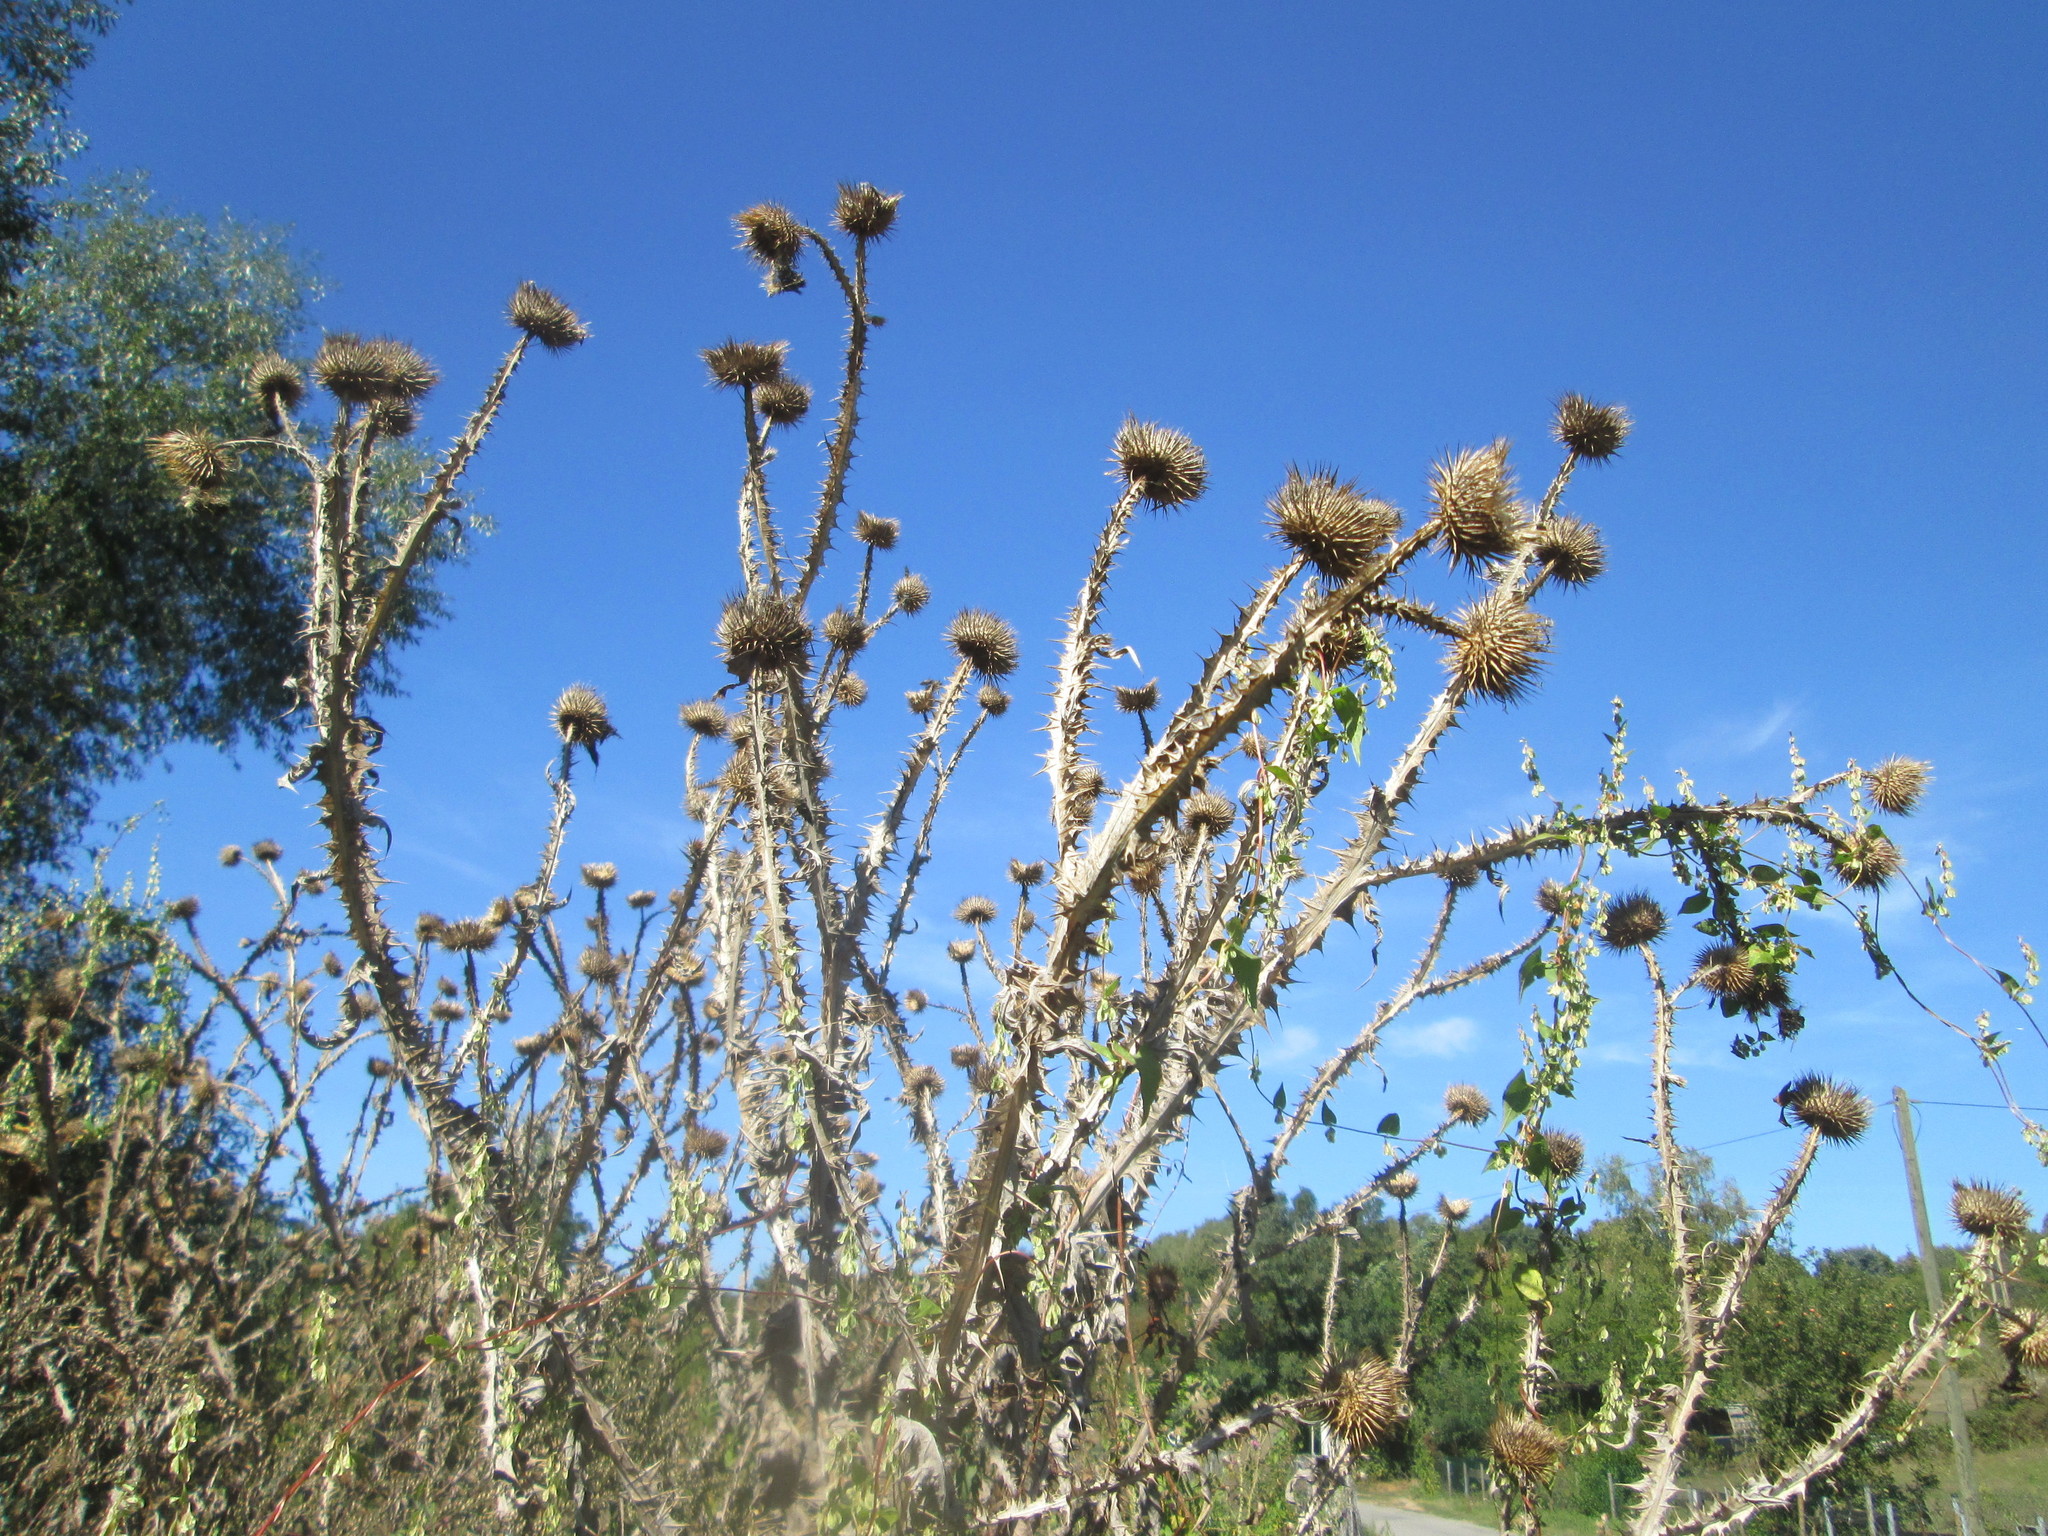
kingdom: Plantae
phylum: Tracheophyta
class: Magnoliopsida
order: Asterales
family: Asteraceae
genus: Onopordum
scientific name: Onopordum acanthium
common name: Scotch thistle
